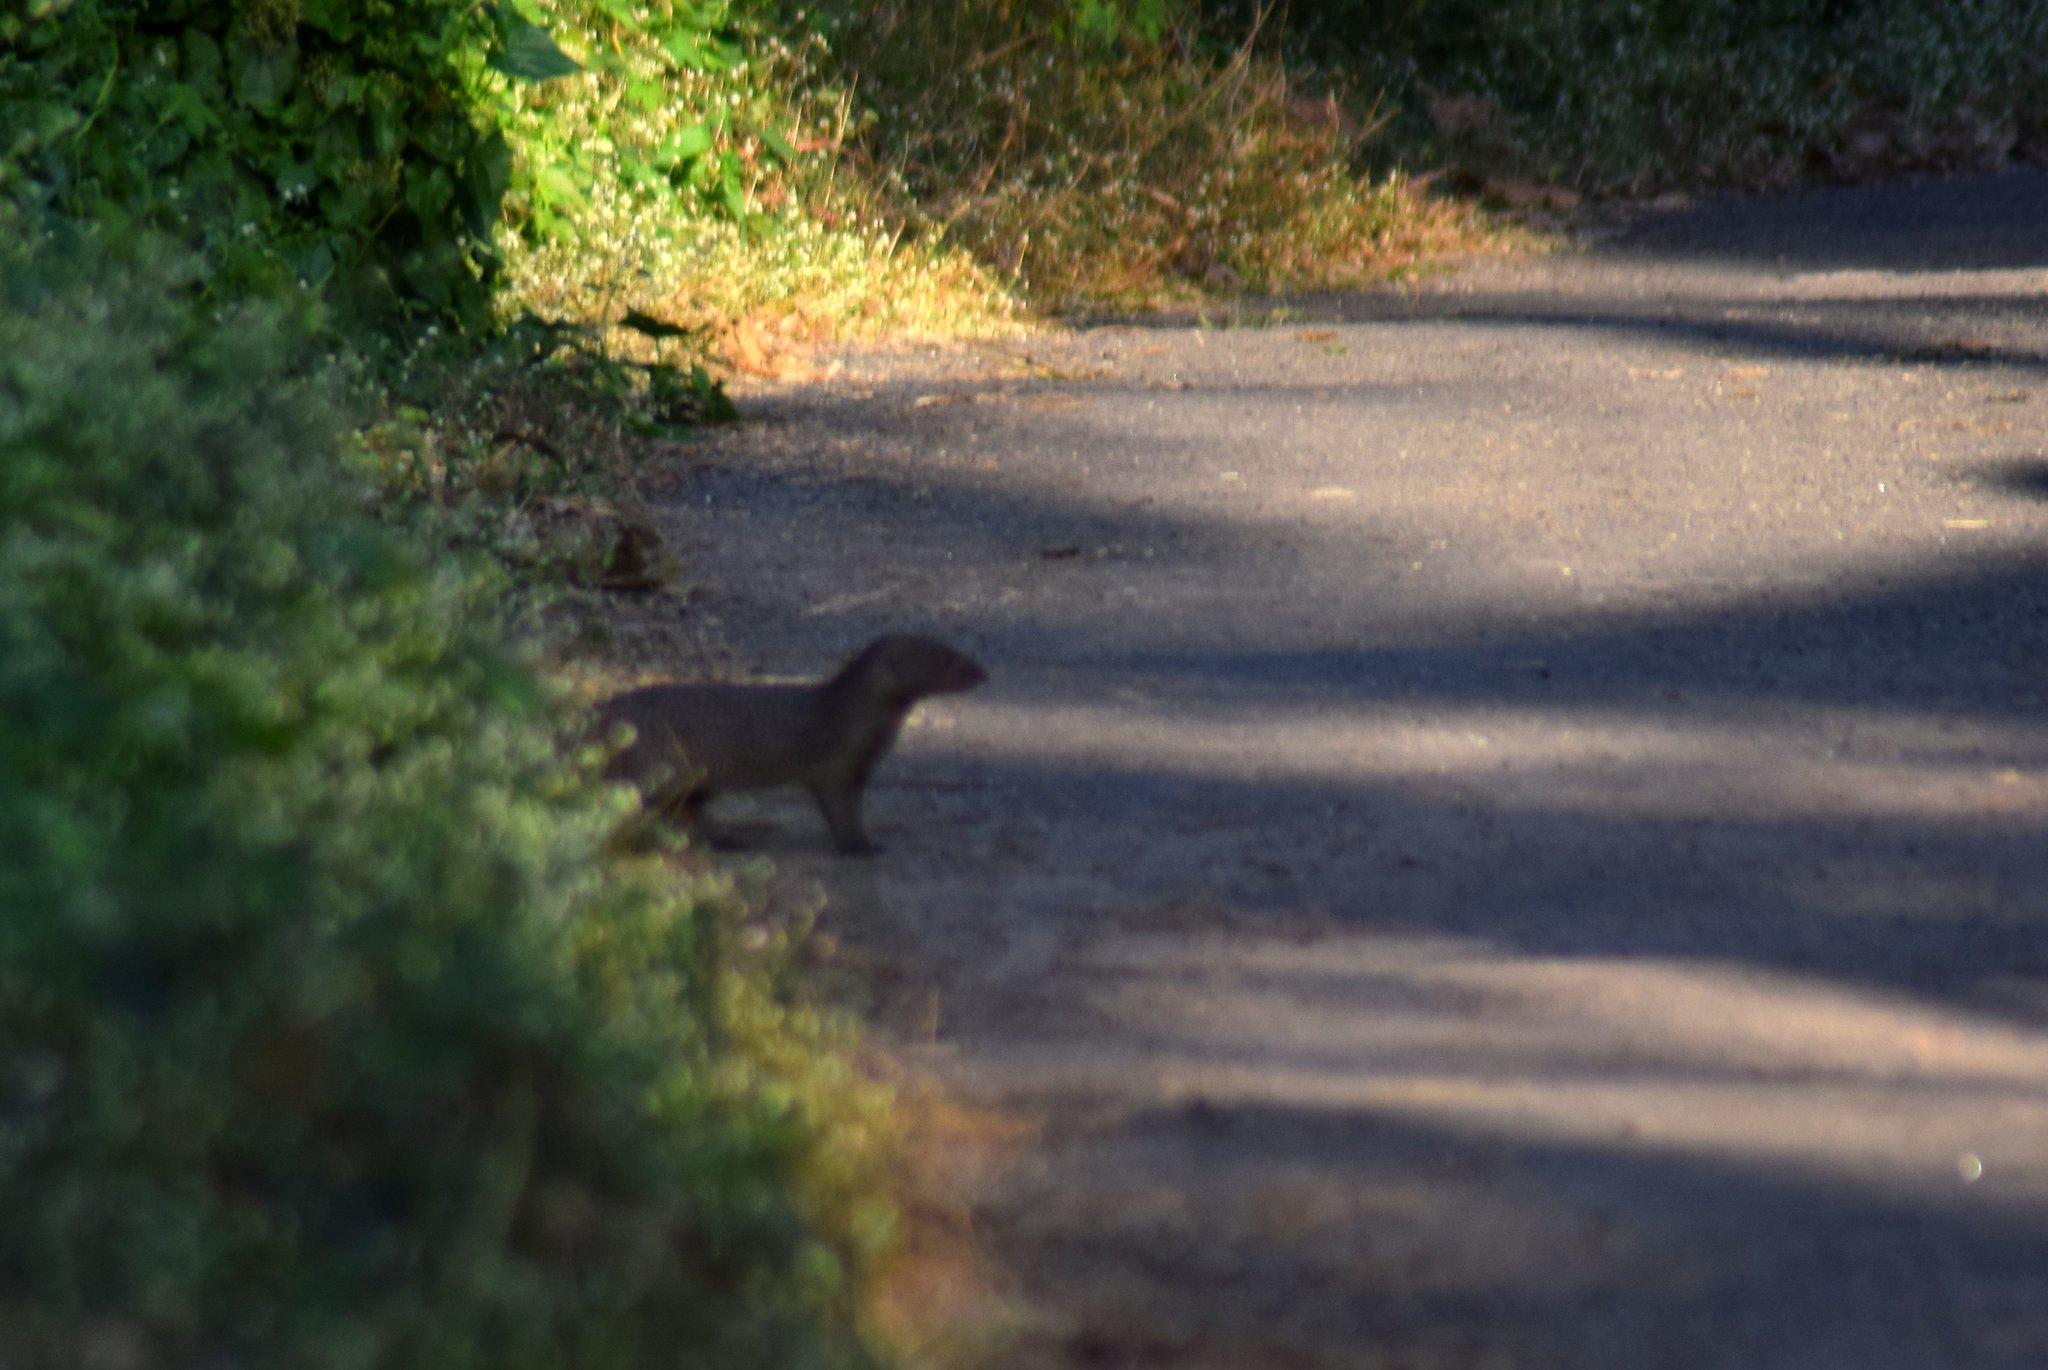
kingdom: Animalia
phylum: Chordata
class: Mammalia
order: Carnivora
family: Herpestidae
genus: Herpestes
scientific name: Herpestes edwardsi
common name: Indian gray mongoose
